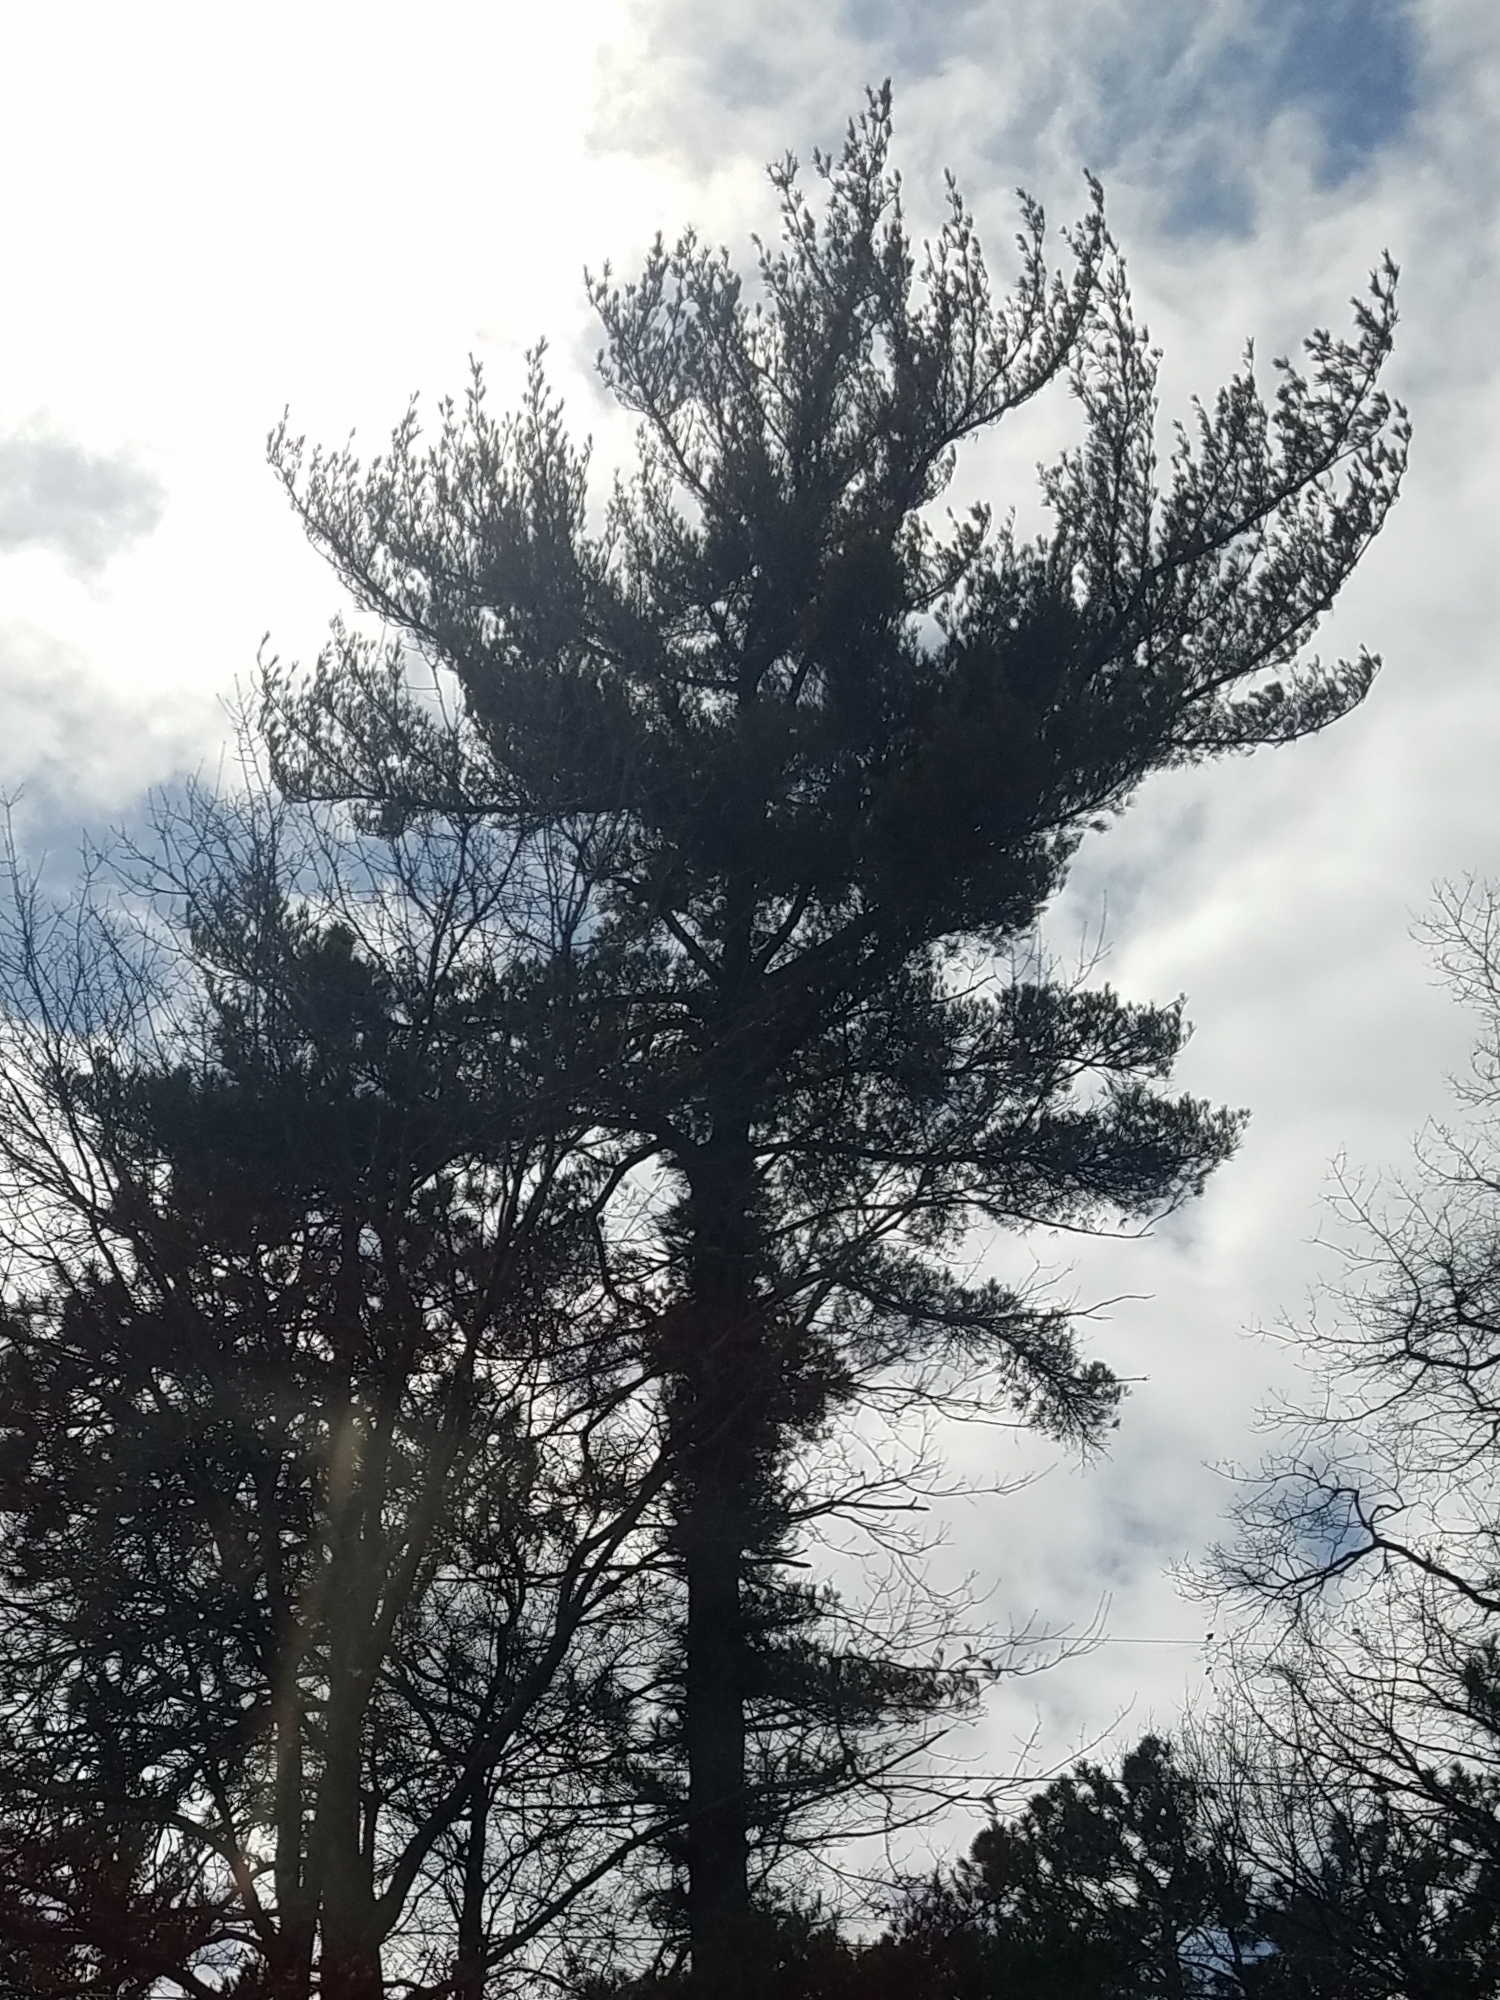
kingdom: Plantae
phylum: Tracheophyta
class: Pinopsida
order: Pinales
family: Pinaceae
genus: Pinus
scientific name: Pinus strobus
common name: Weymouth pine
